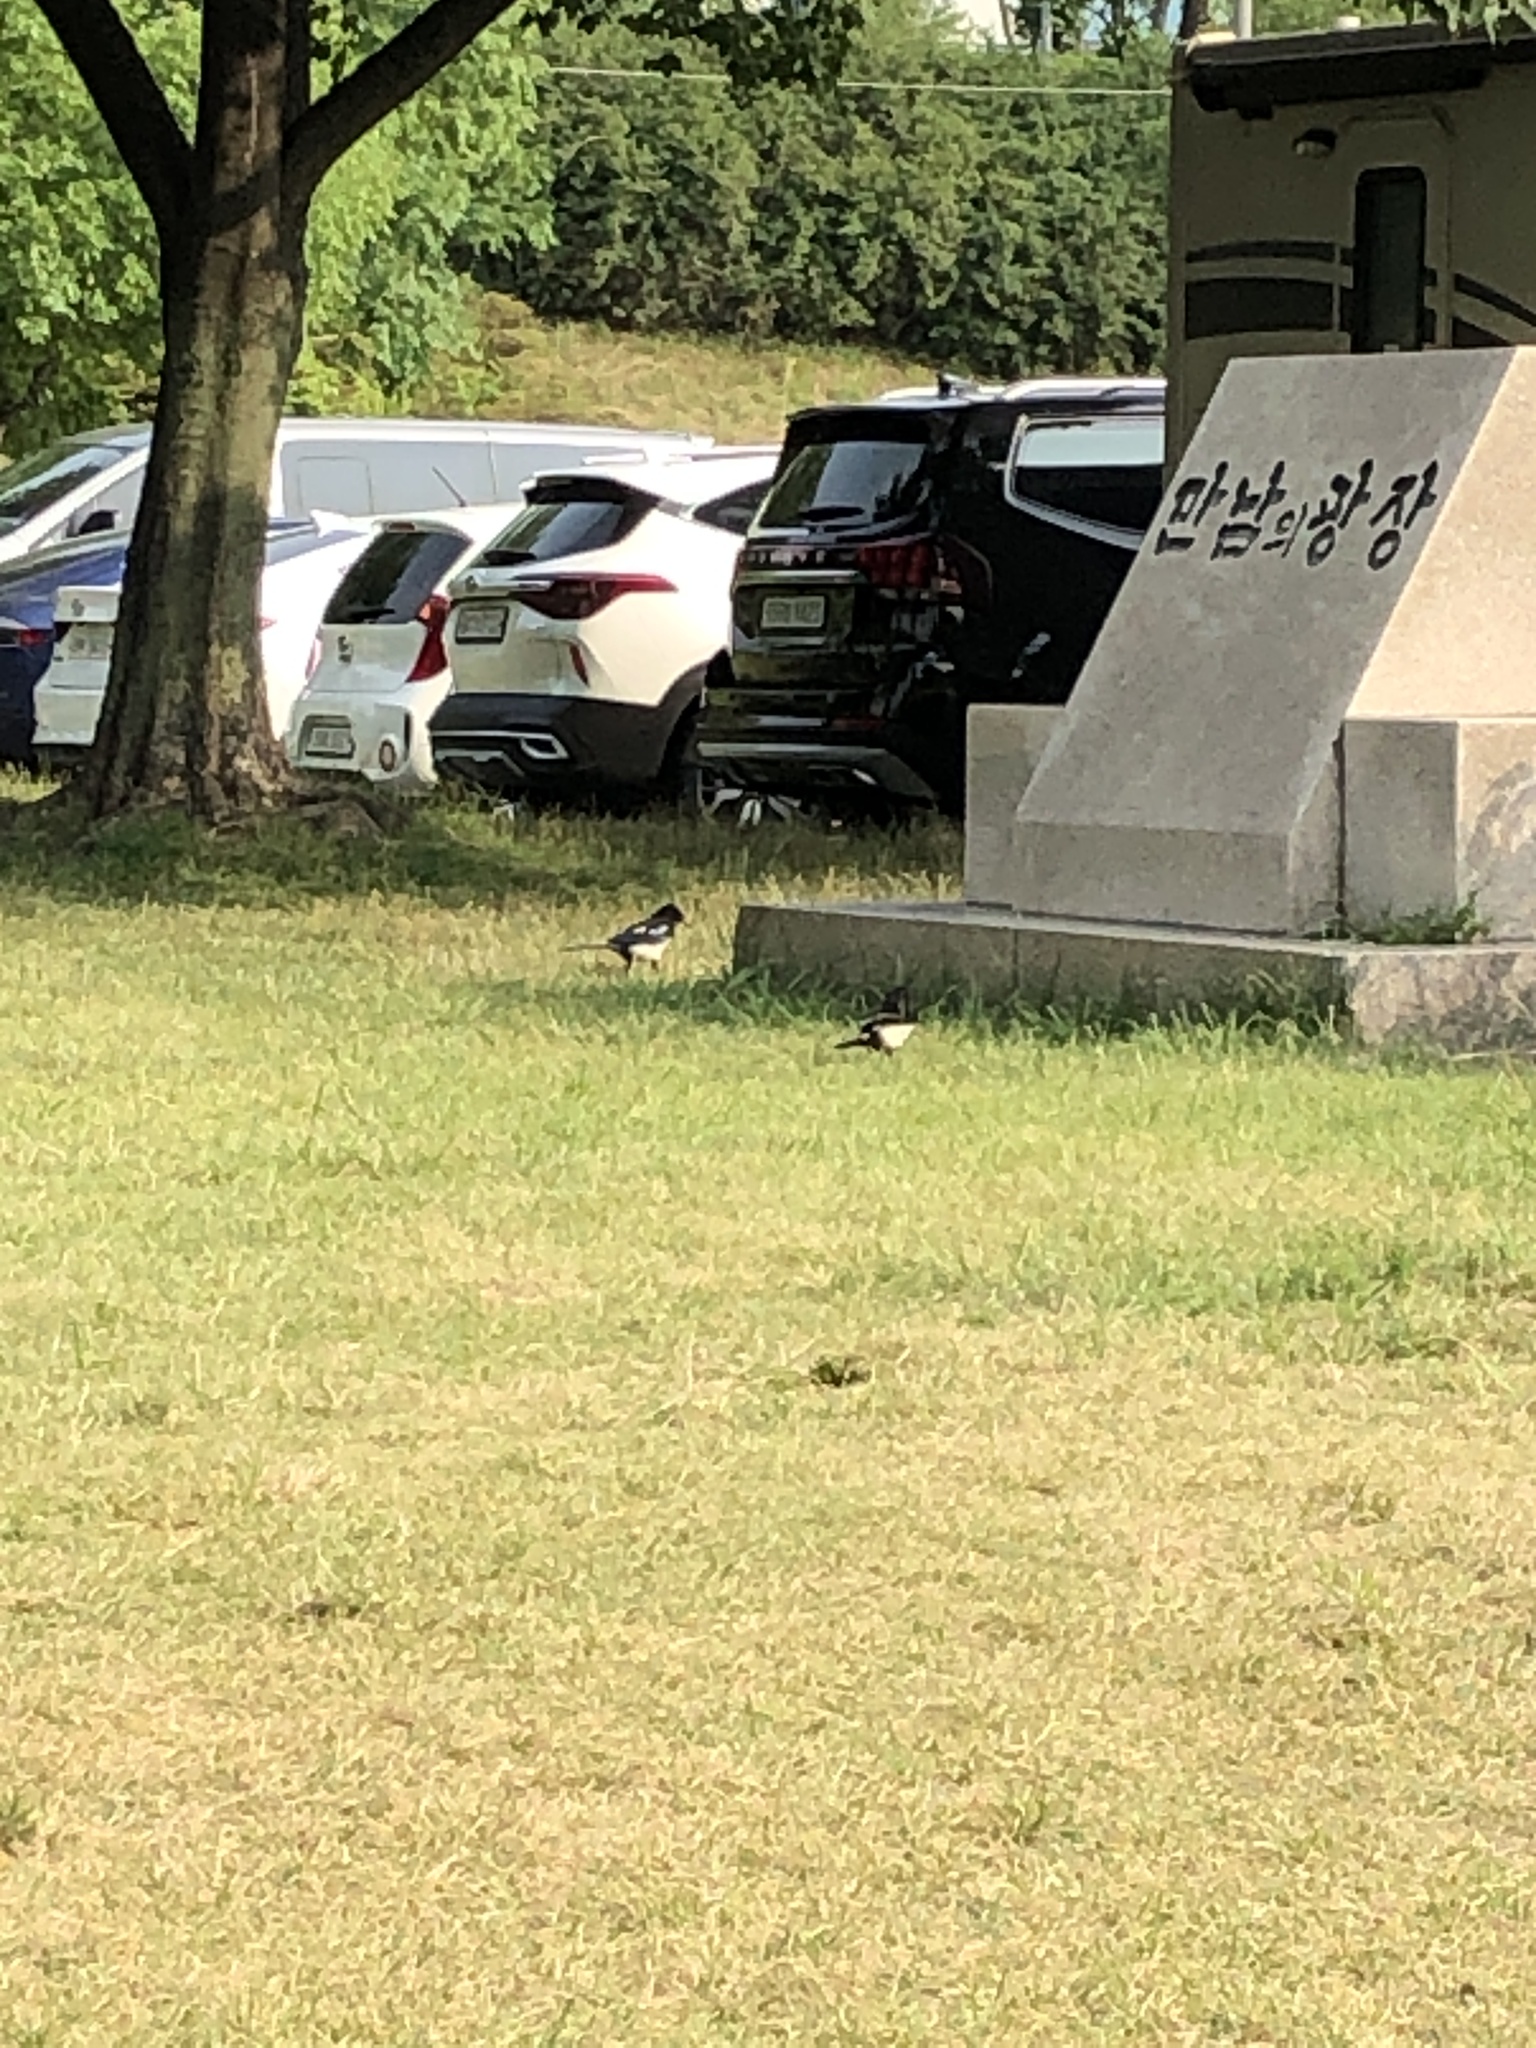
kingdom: Animalia
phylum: Chordata
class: Aves
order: Passeriformes
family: Corvidae
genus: Pica
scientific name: Pica serica
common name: Oriental magpie
